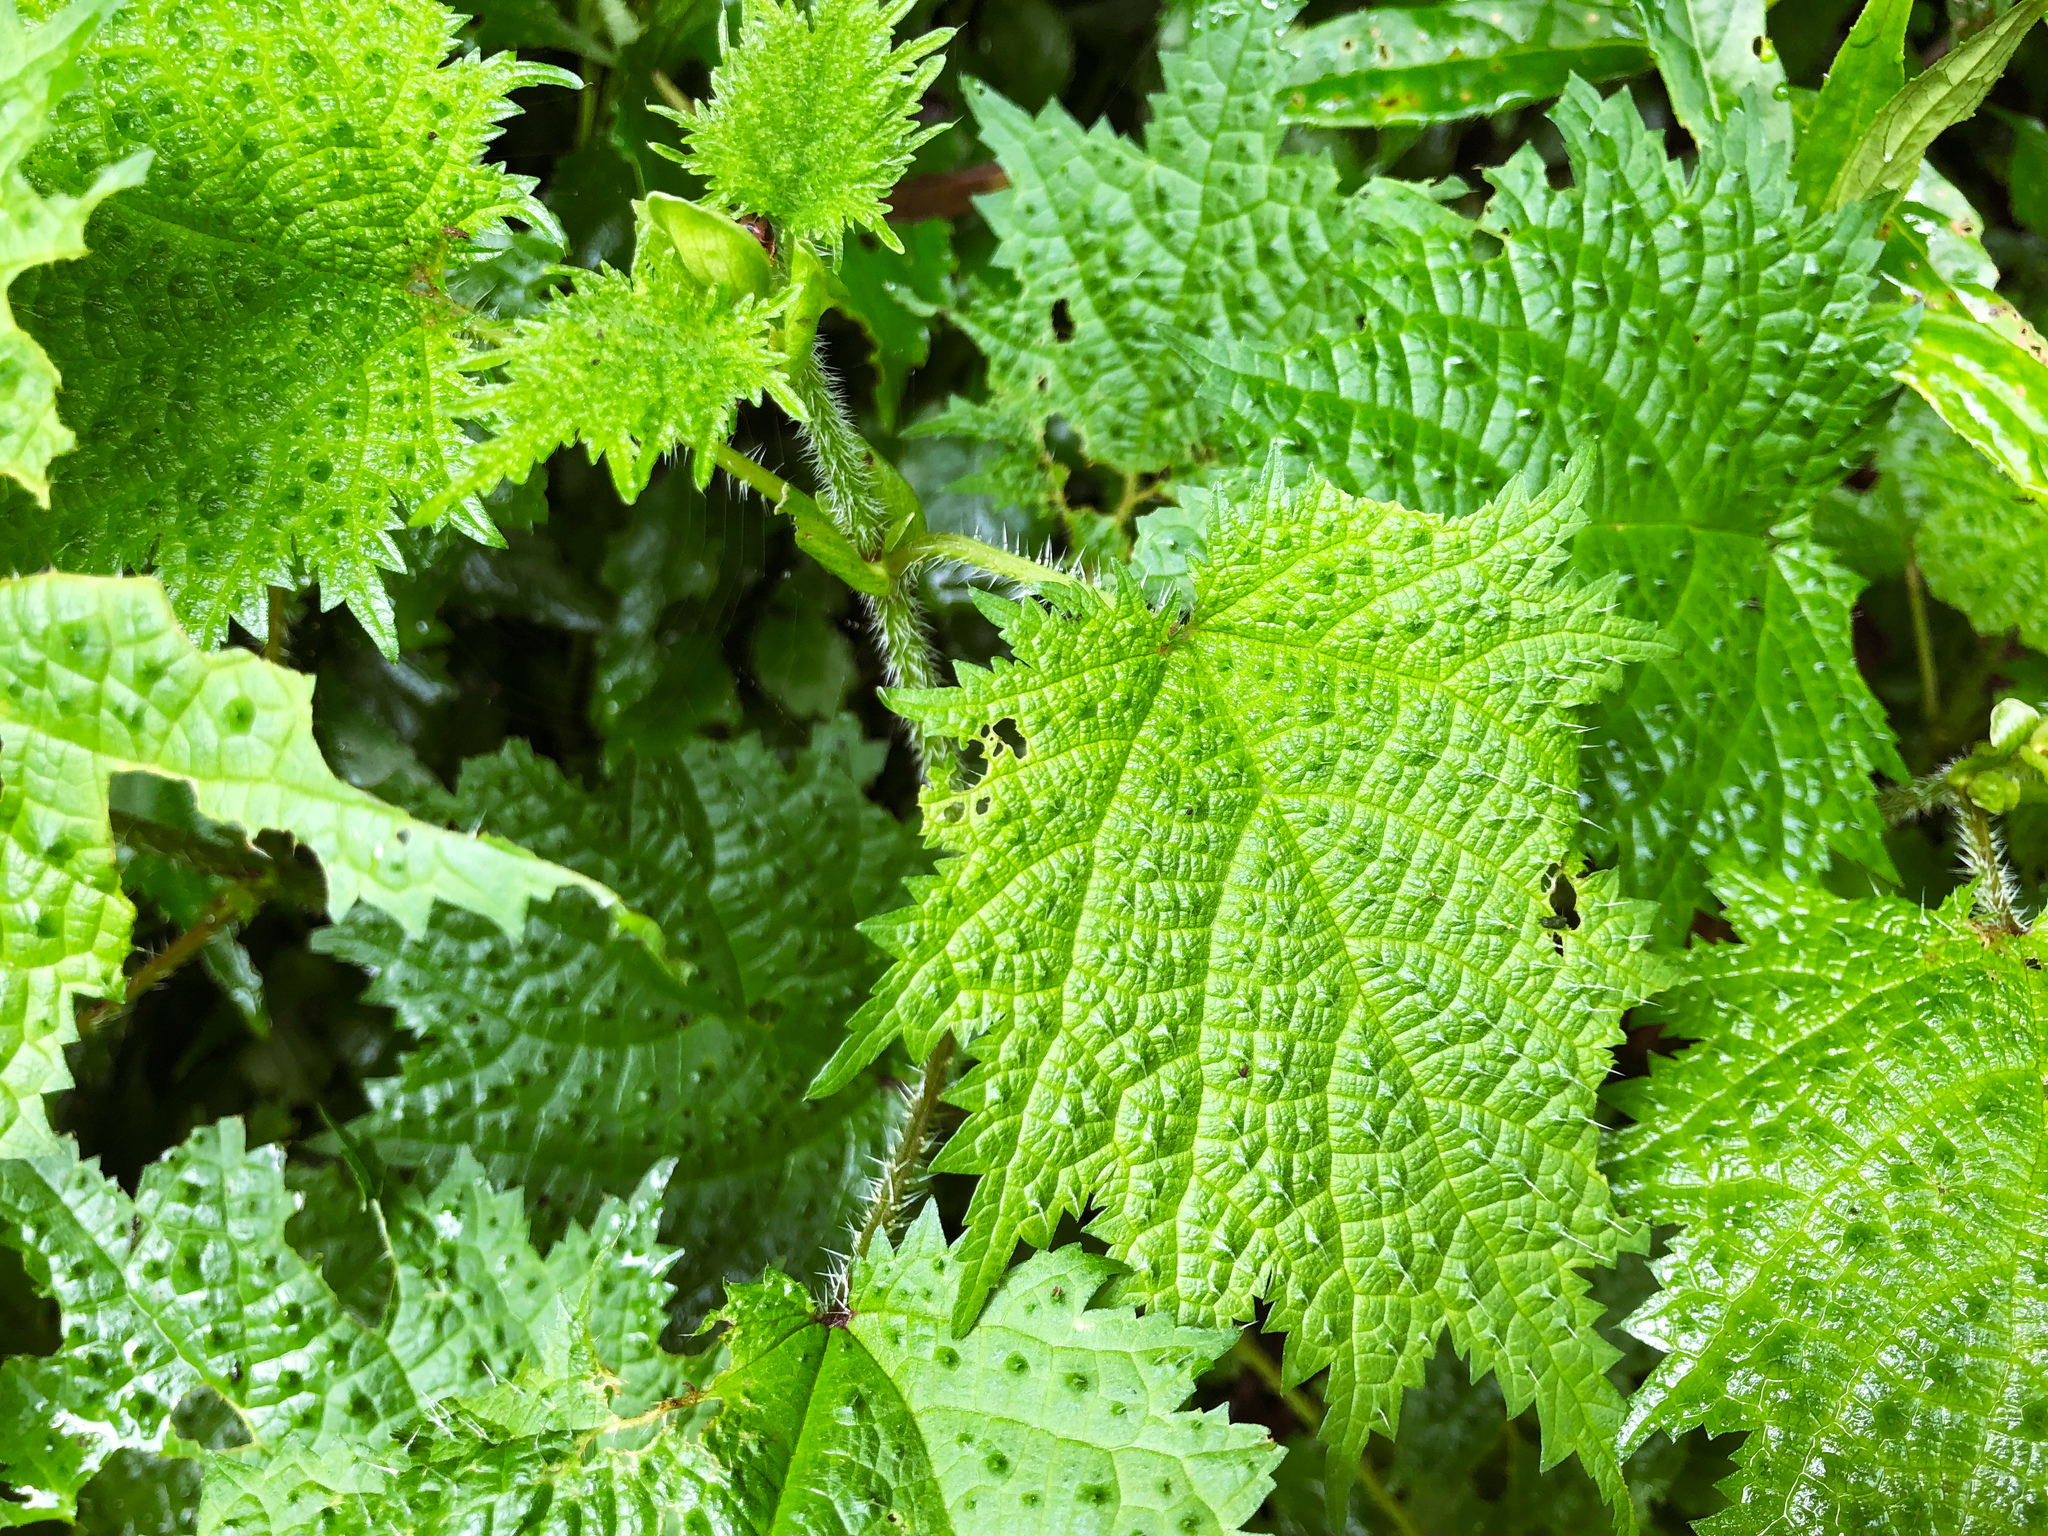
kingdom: Plantae
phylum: Tracheophyta
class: Magnoliopsida
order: Rosales
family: Urticaceae
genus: Urtica
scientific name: Urtica thunbergiana
